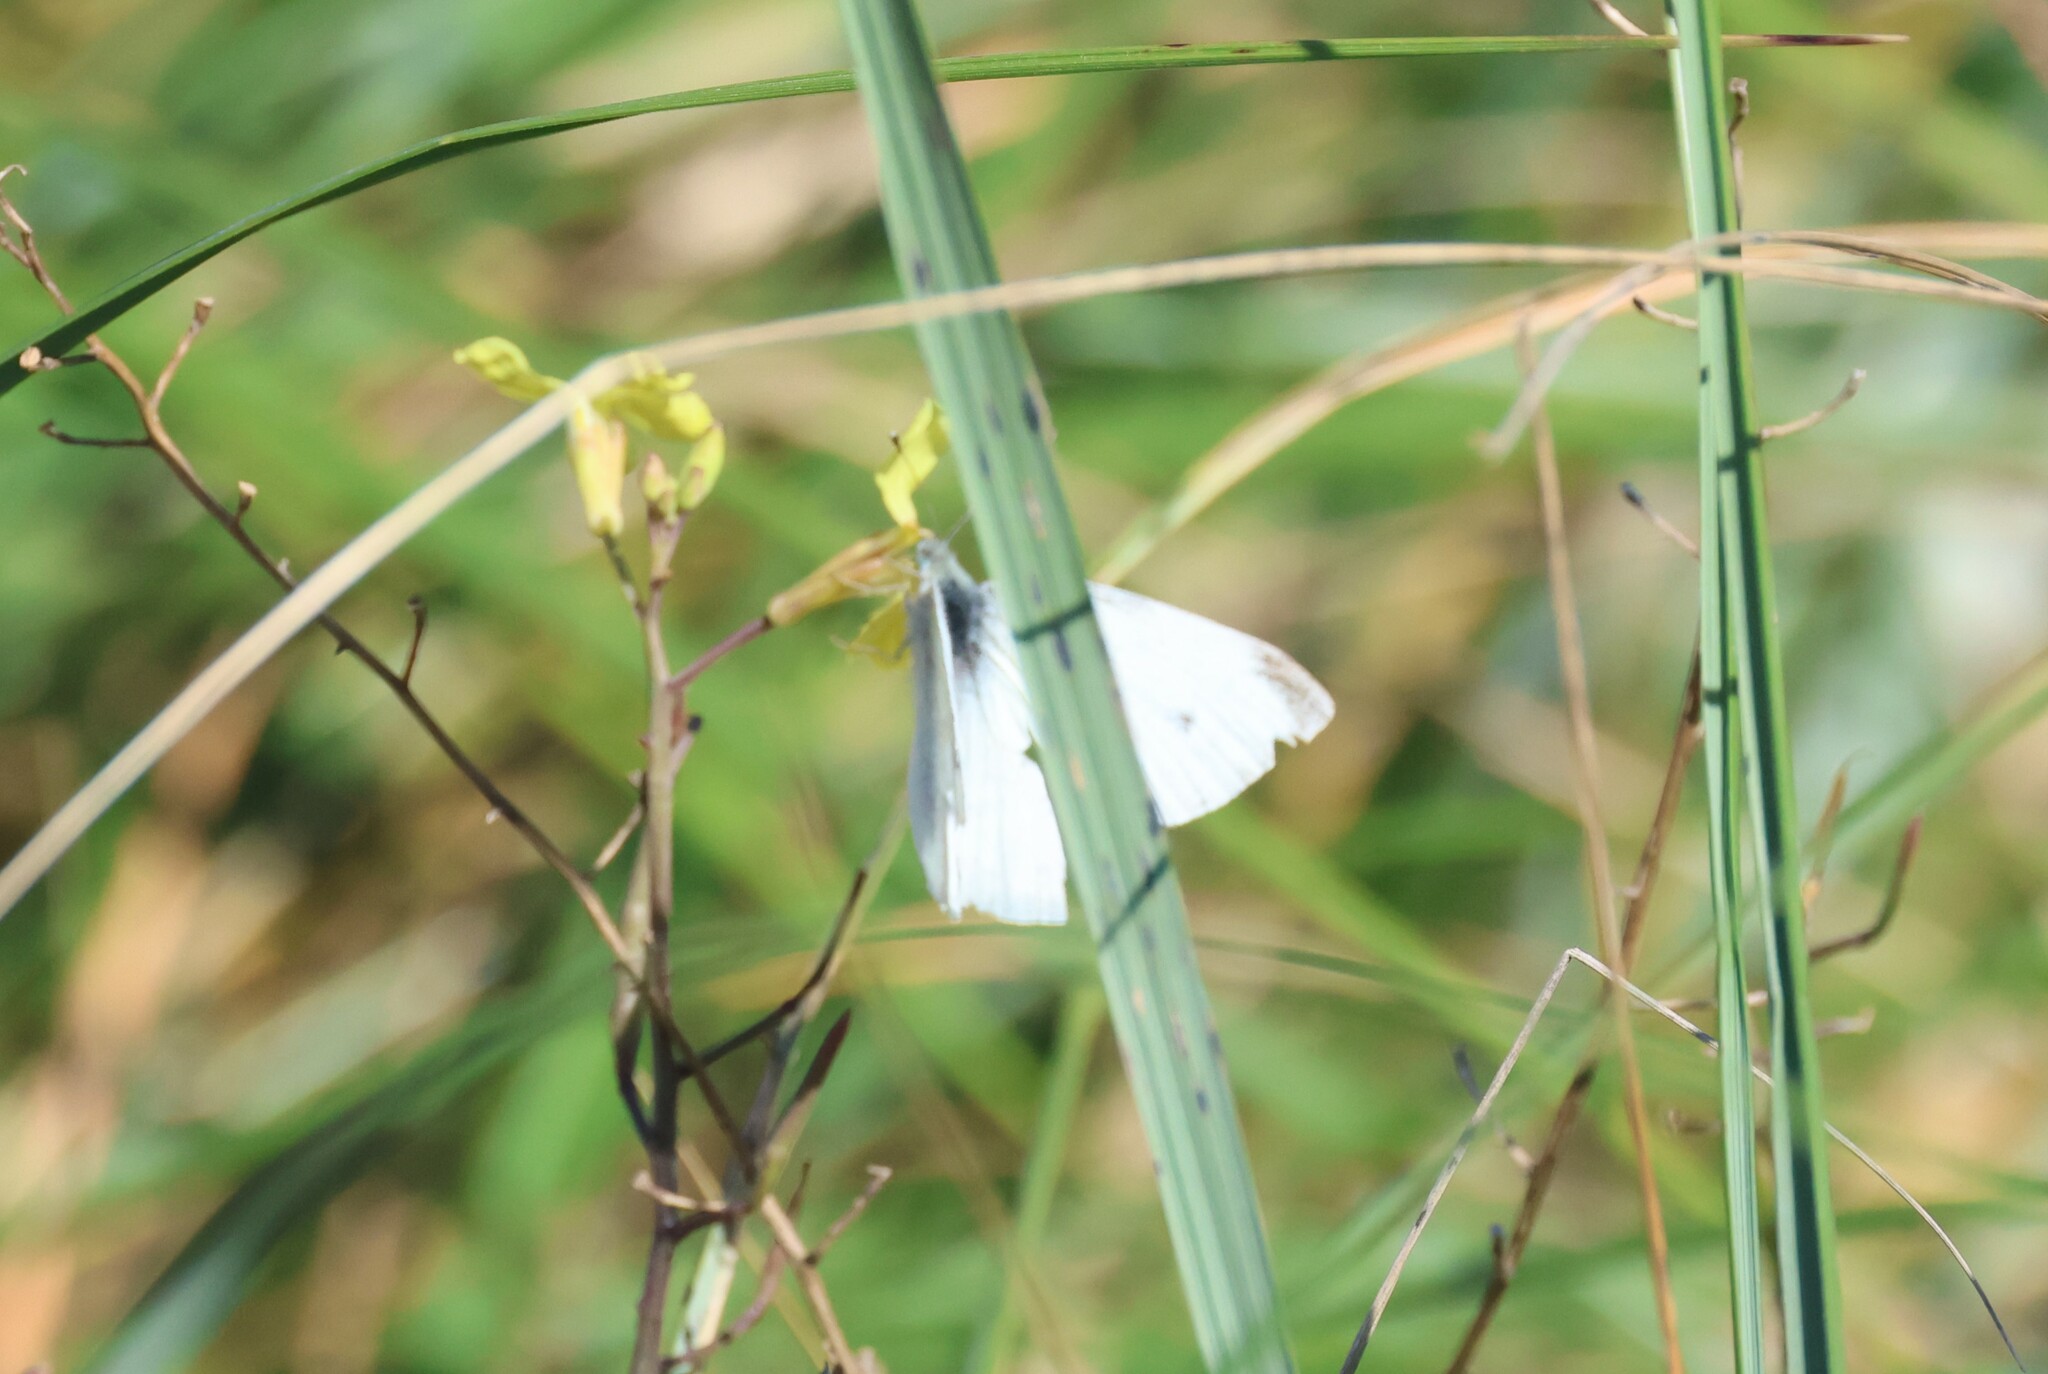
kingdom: Animalia
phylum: Arthropoda
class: Insecta
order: Lepidoptera
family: Pieridae
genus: Pieris
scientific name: Pieris rapae
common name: Small white
